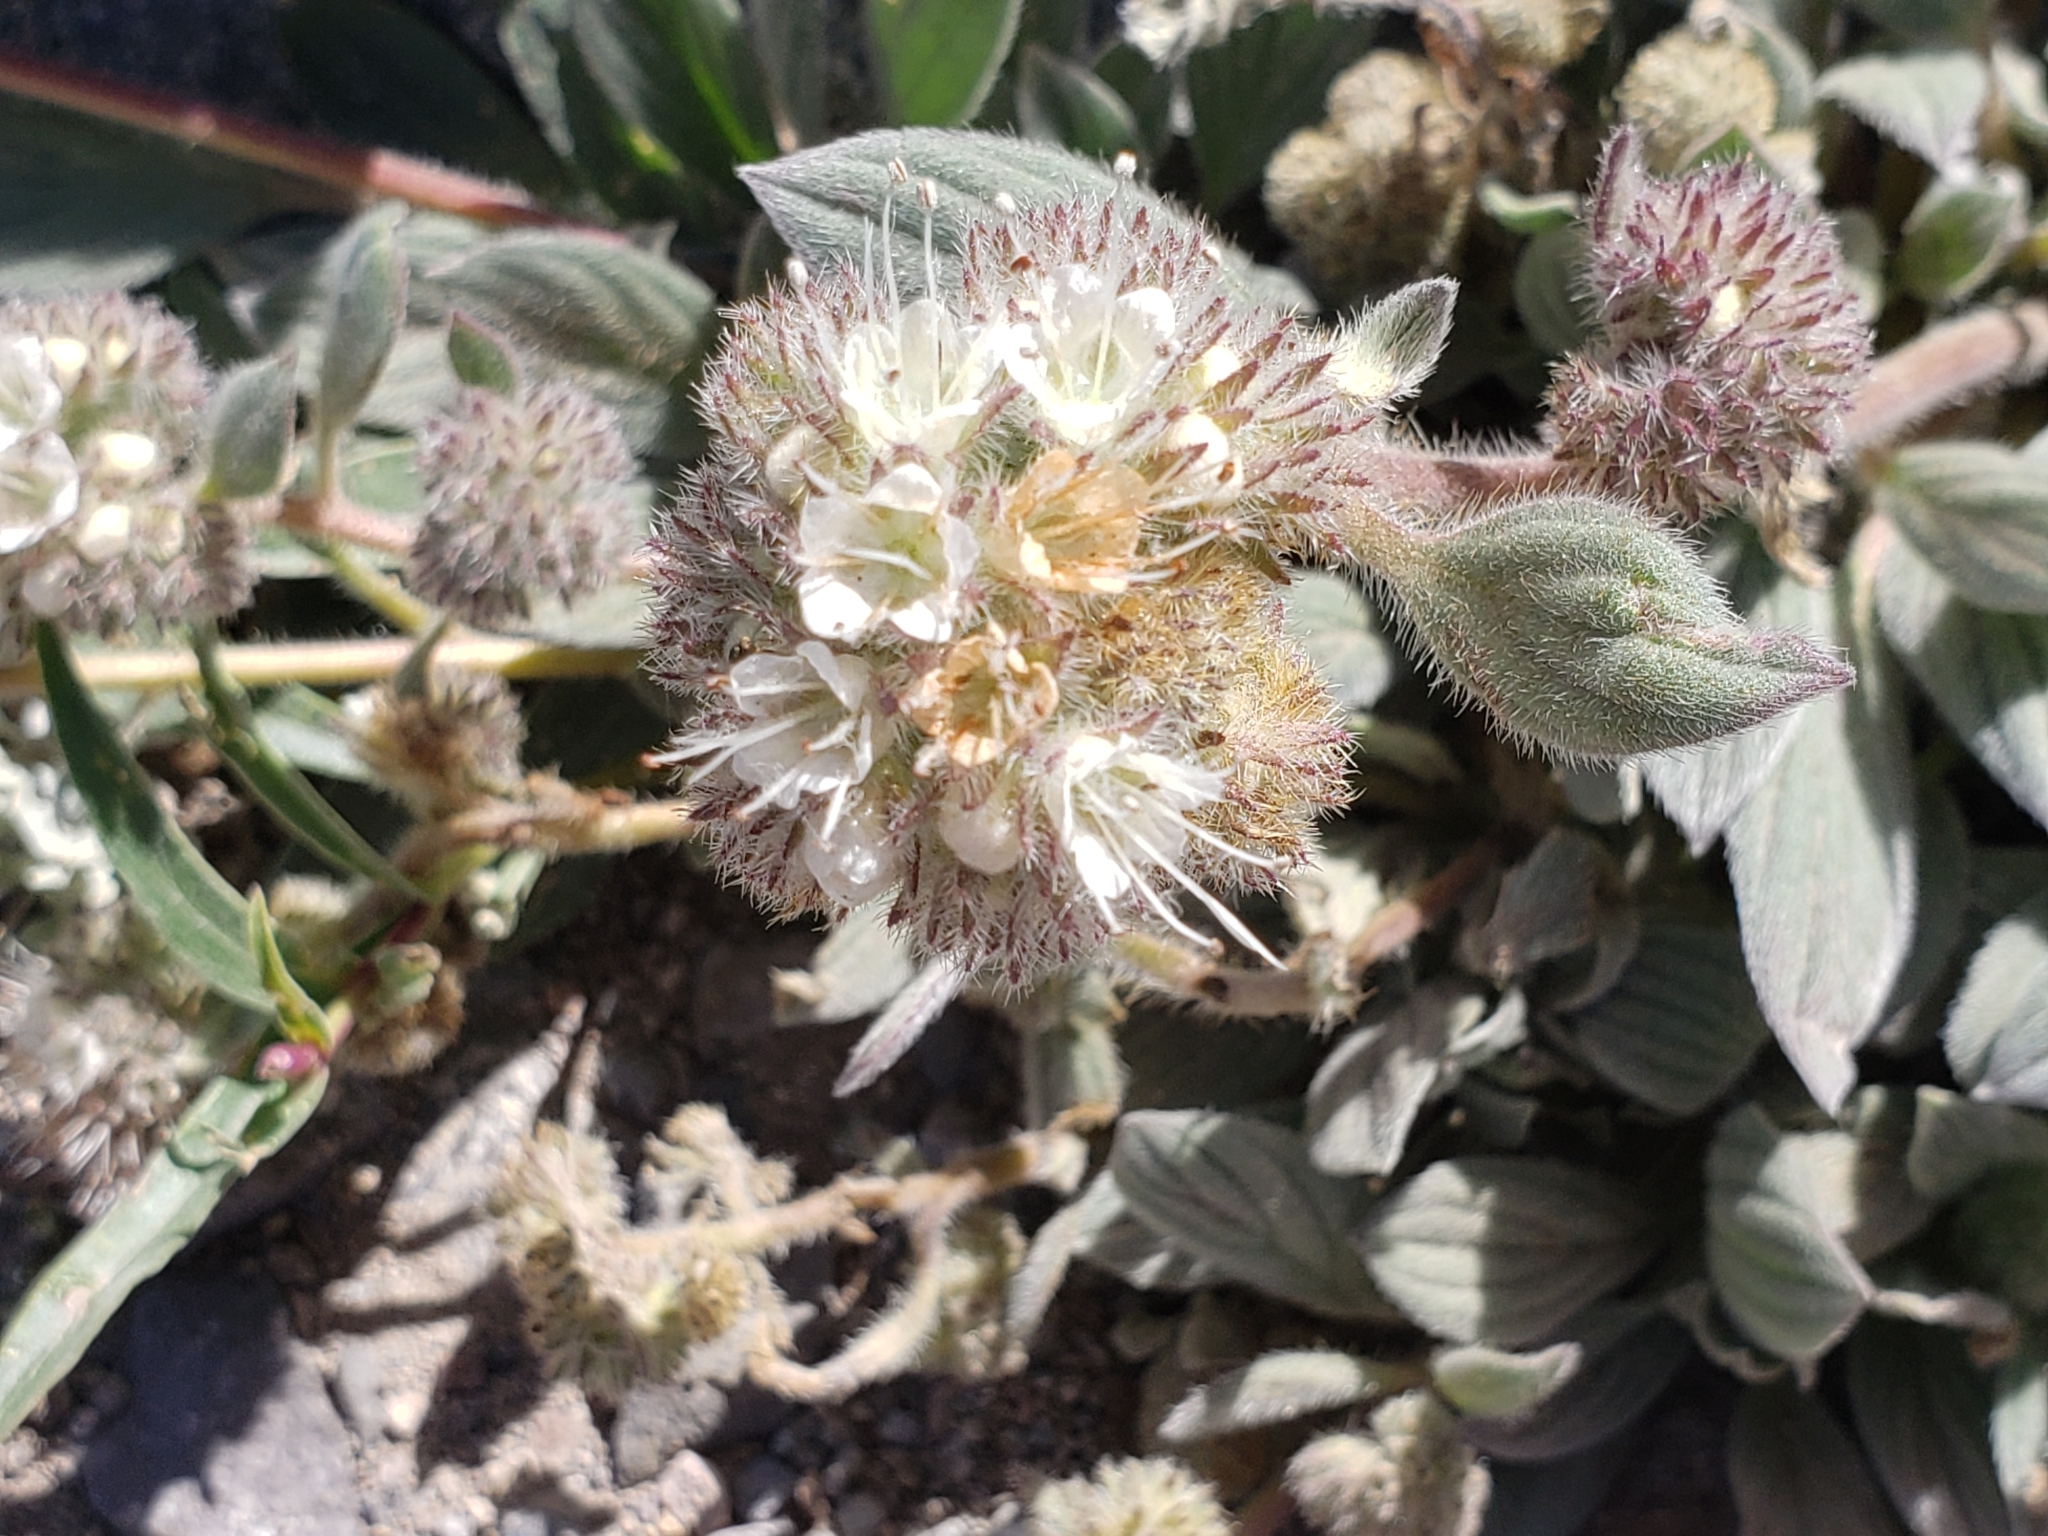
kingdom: Plantae
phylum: Tracheophyta
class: Magnoliopsida
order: Boraginales
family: Hydrophyllaceae
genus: Phacelia
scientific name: Phacelia hastata
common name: Silver-leaved phacelia
